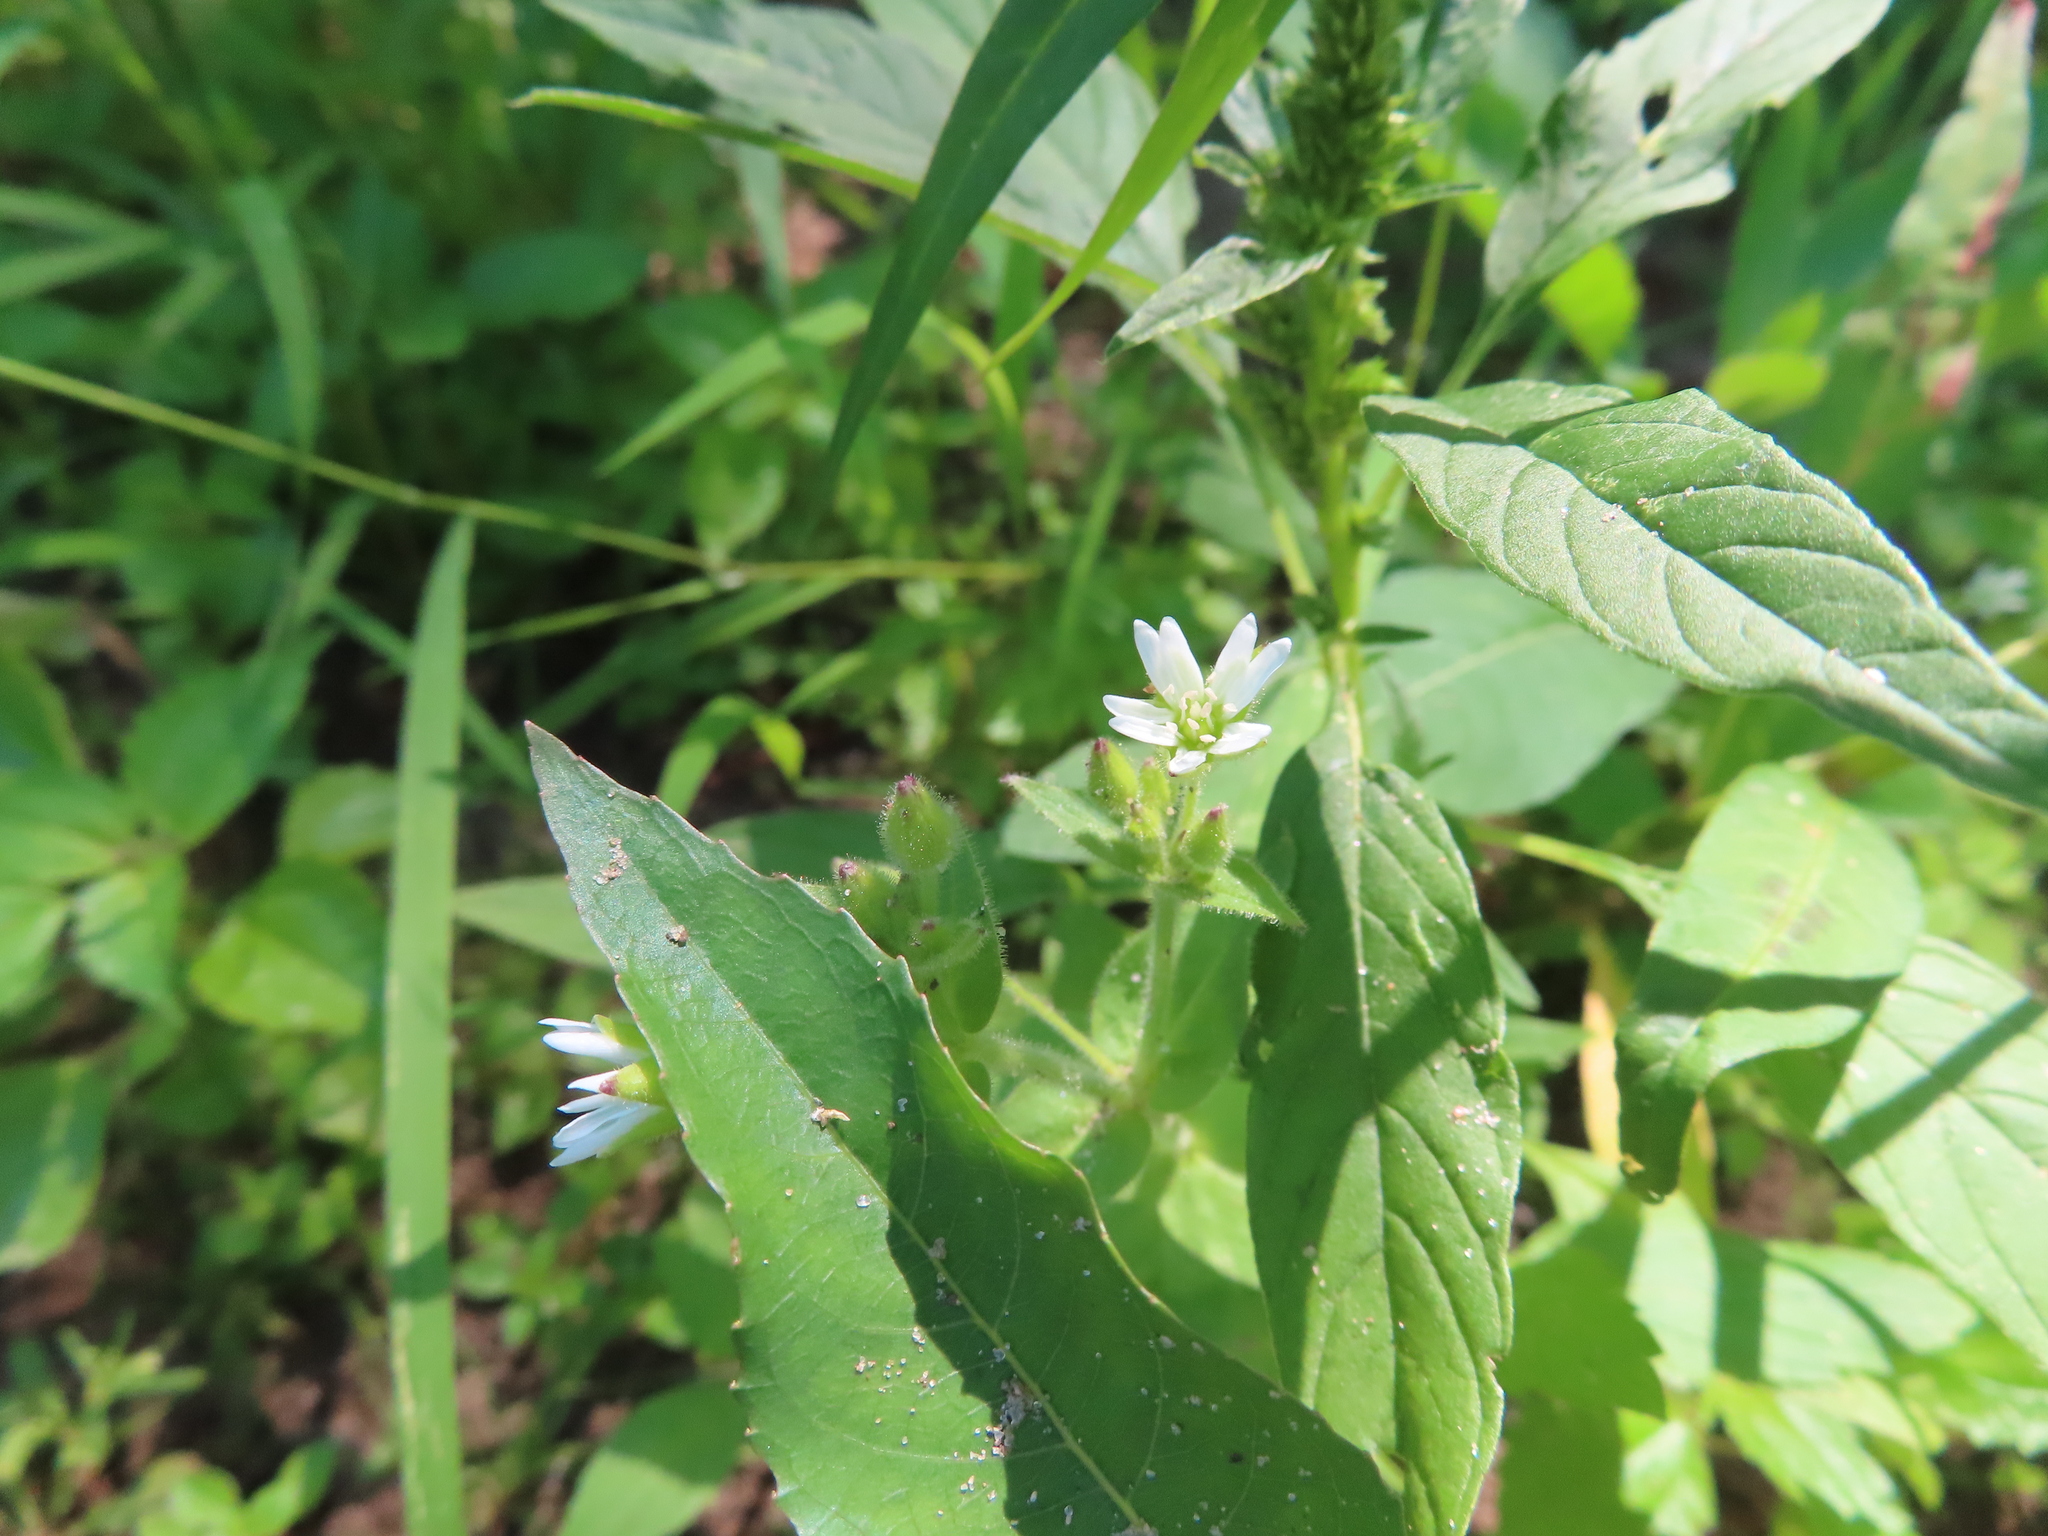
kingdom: Plantae
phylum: Tracheophyta
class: Magnoliopsida
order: Caryophyllales
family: Caryophyllaceae
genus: Stellaria
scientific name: Stellaria aquatica
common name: Water chickweed
